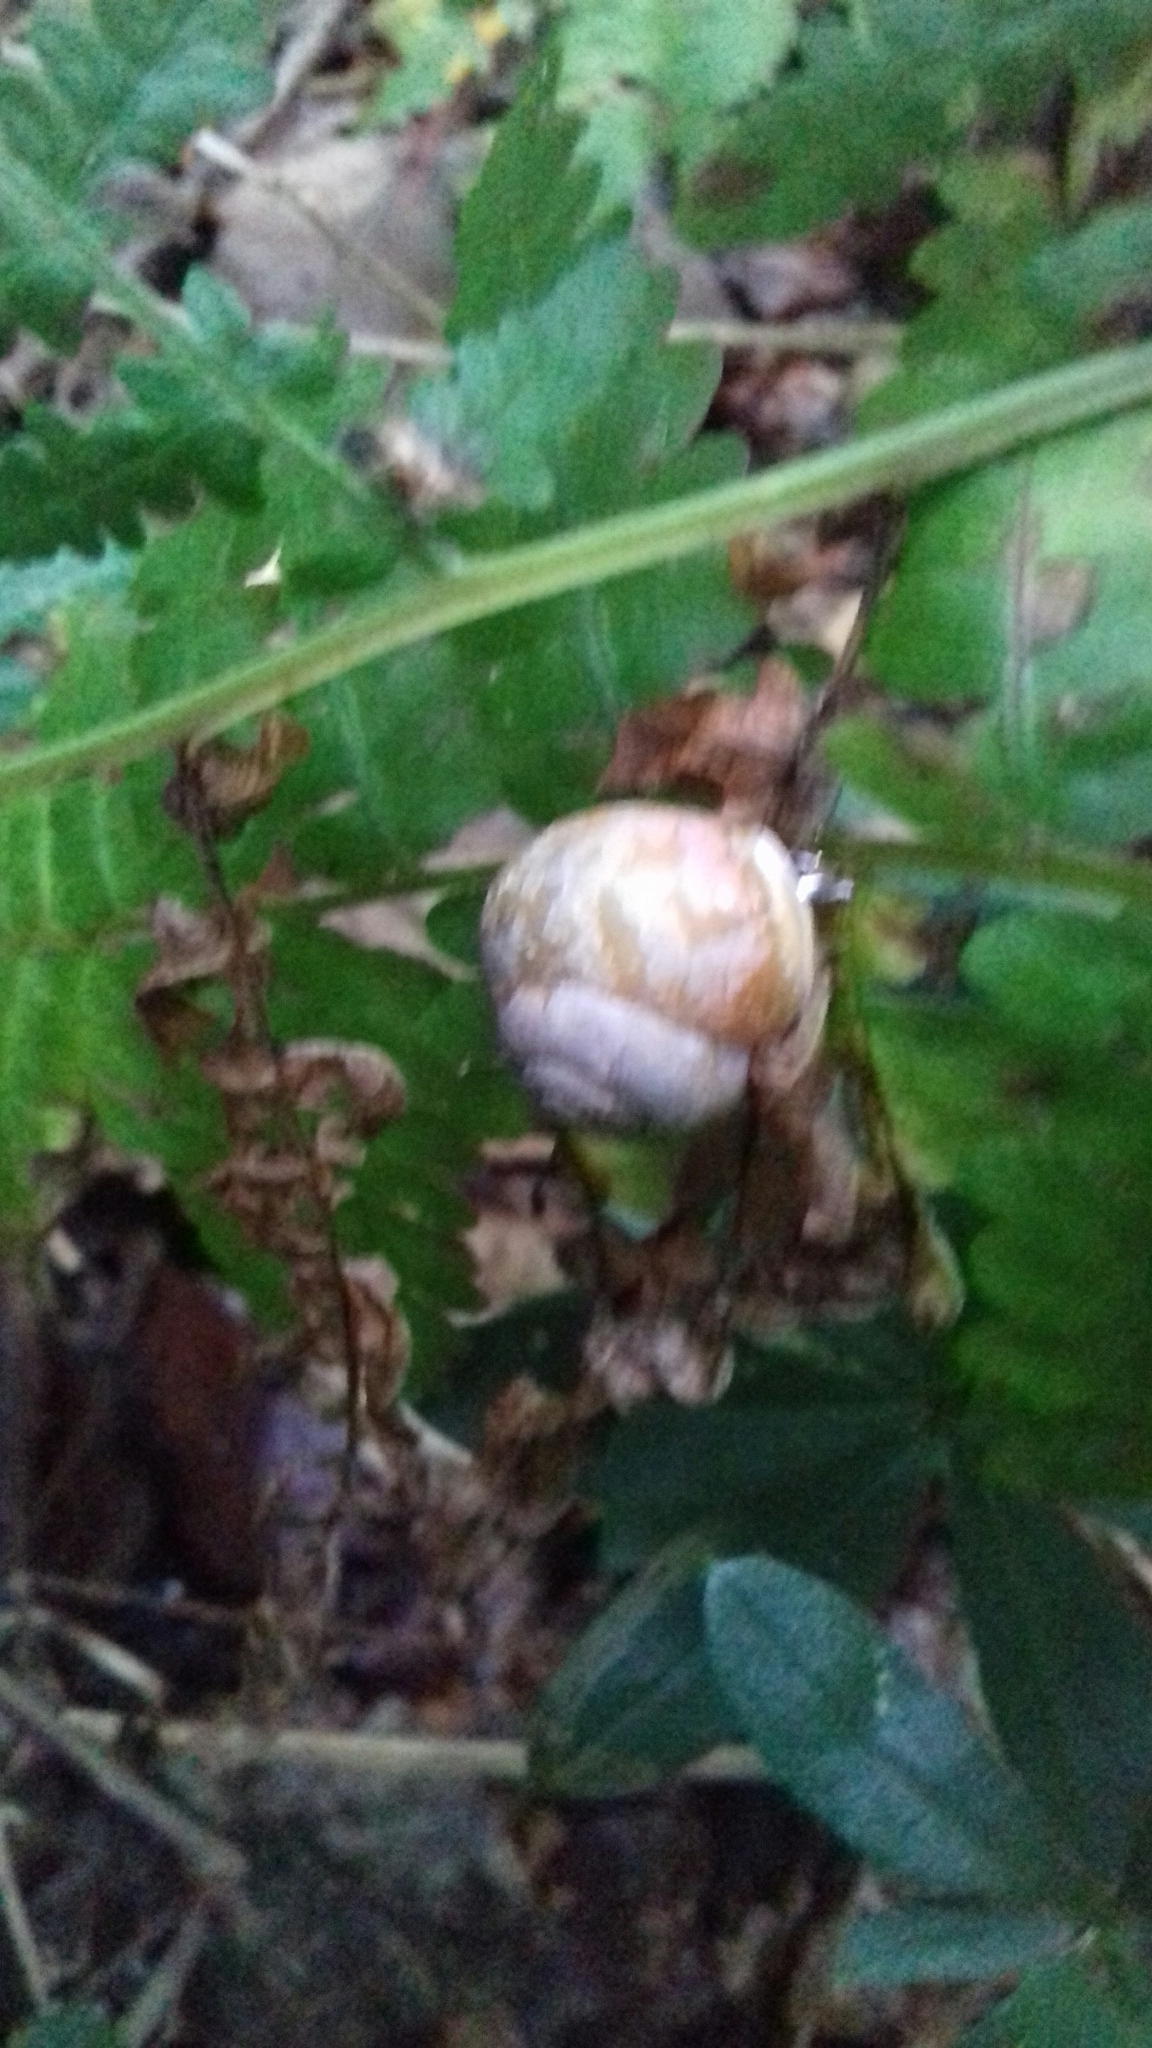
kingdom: Animalia
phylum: Mollusca
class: Gastropoda
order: Stylommatophora
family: Helicidae
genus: Helix
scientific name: Helix pomatia
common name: Roman snail
